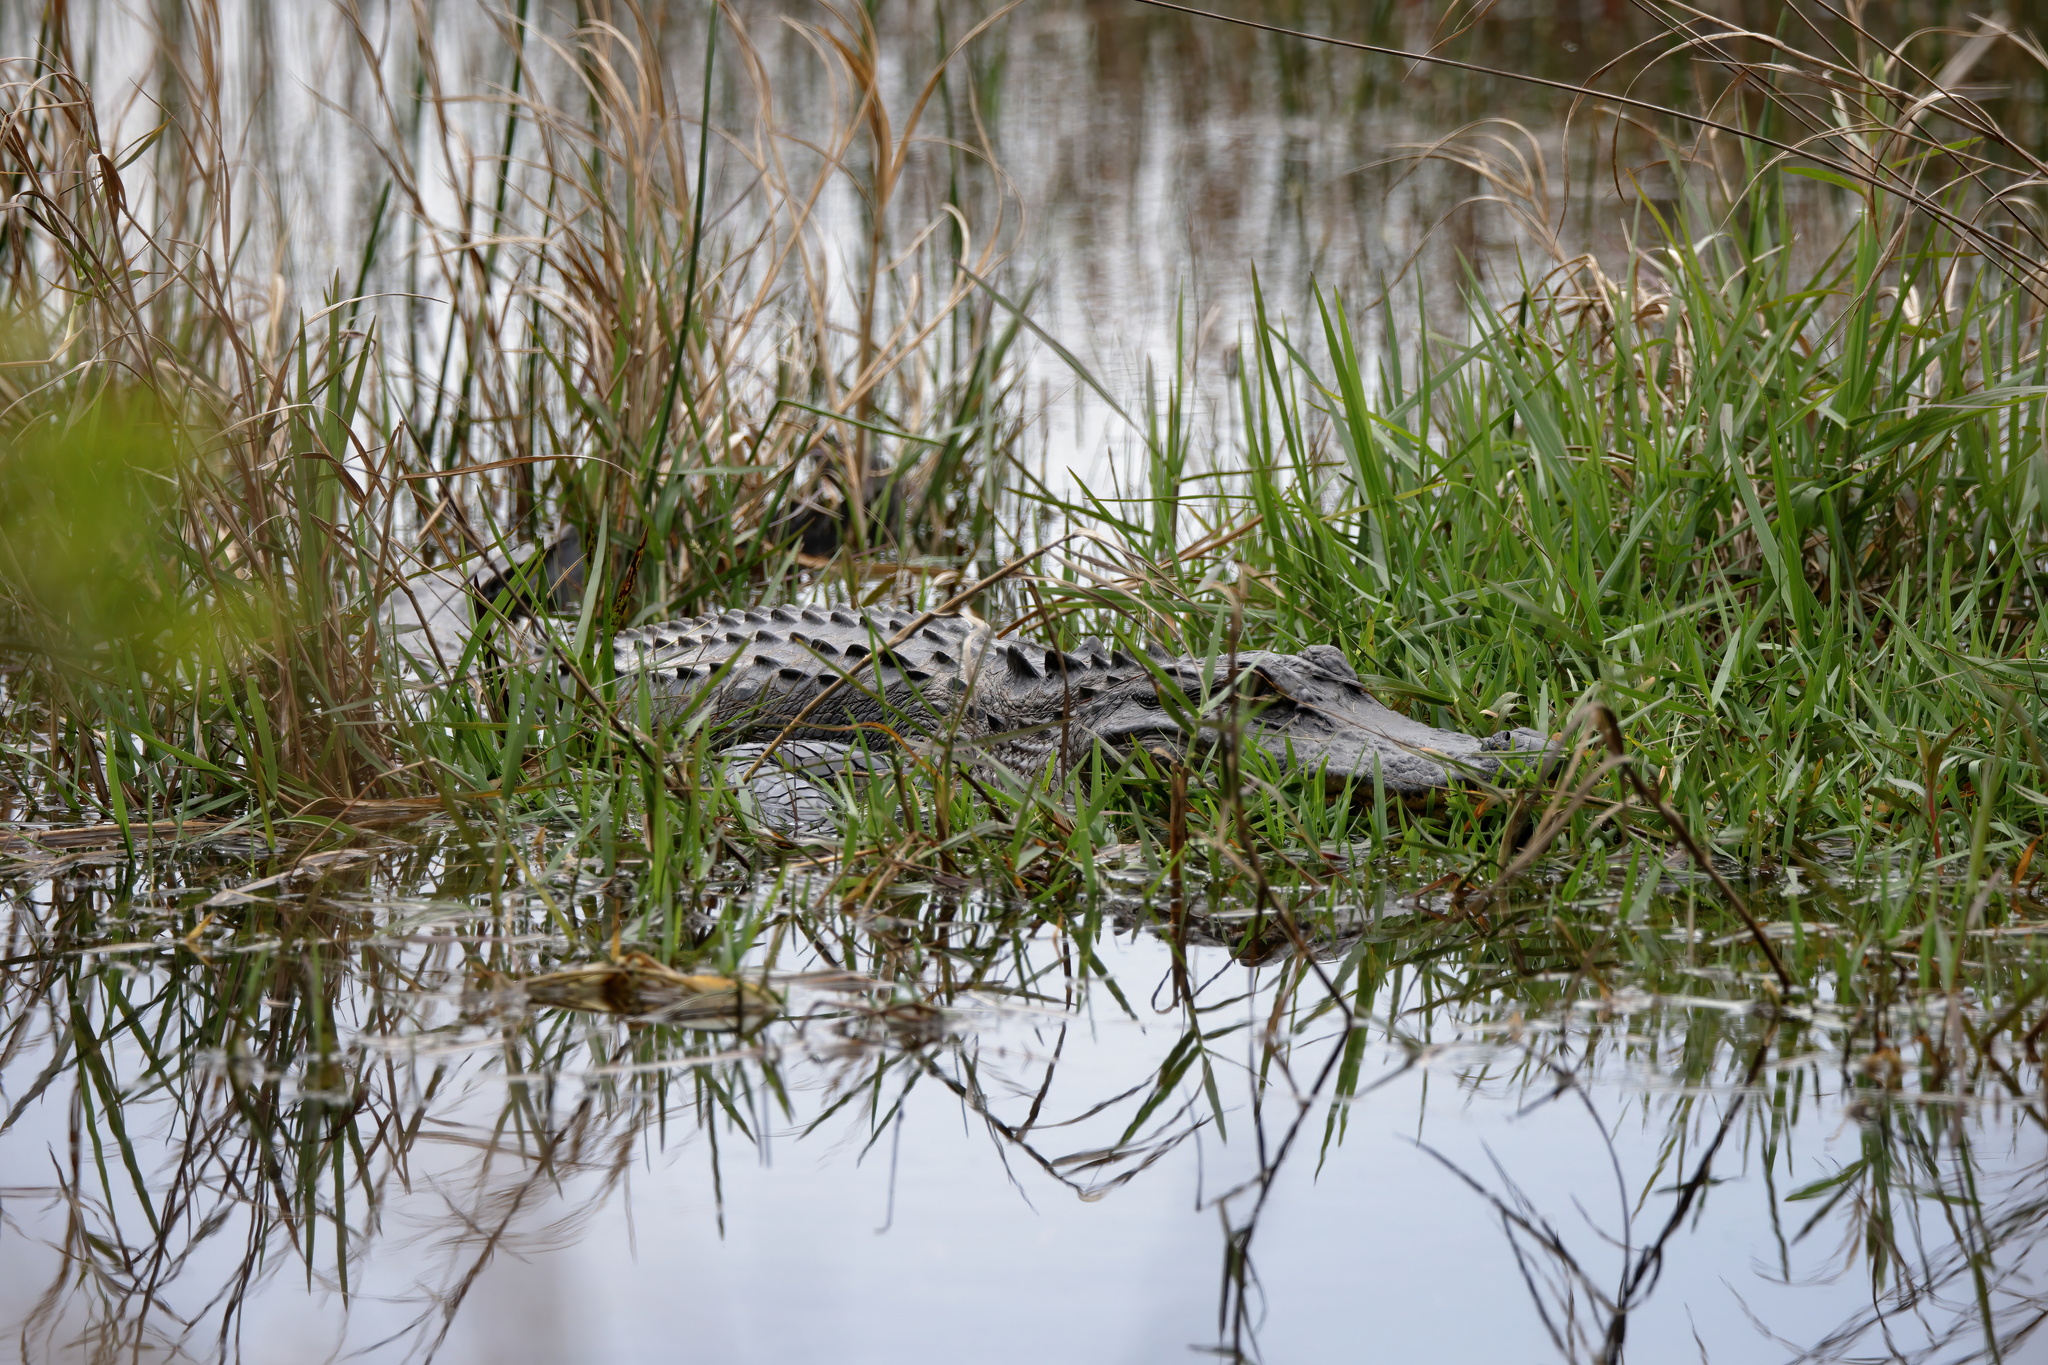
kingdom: Animalia
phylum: Chordata
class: Crocodylia
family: Alligatoridae
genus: Alligator
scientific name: Alligator mississippiensis
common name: American alligator
